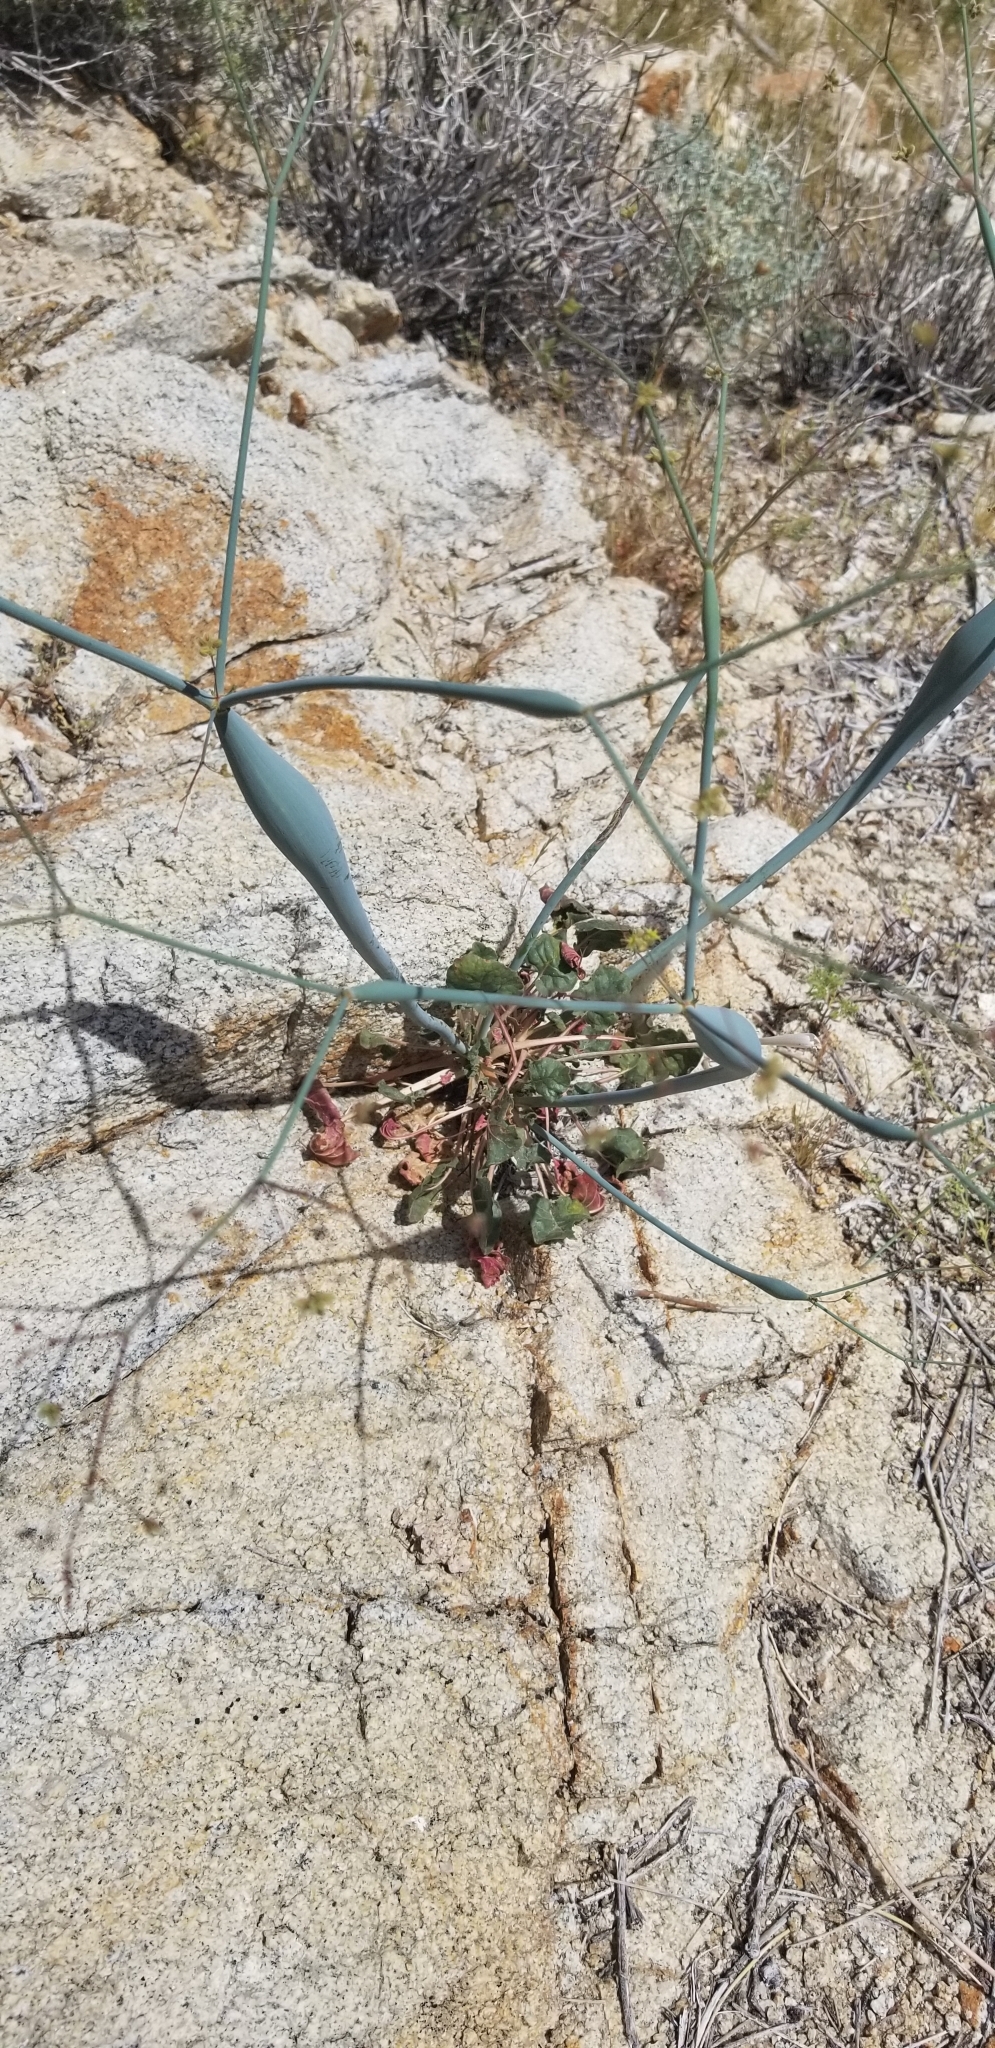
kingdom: Plantae
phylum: Tracheophyta
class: Magnoliopsida
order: Caryophyllales
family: Polygonaceae
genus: Eriogonum
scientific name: Eriogonum inflatum
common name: Desert trumpet
